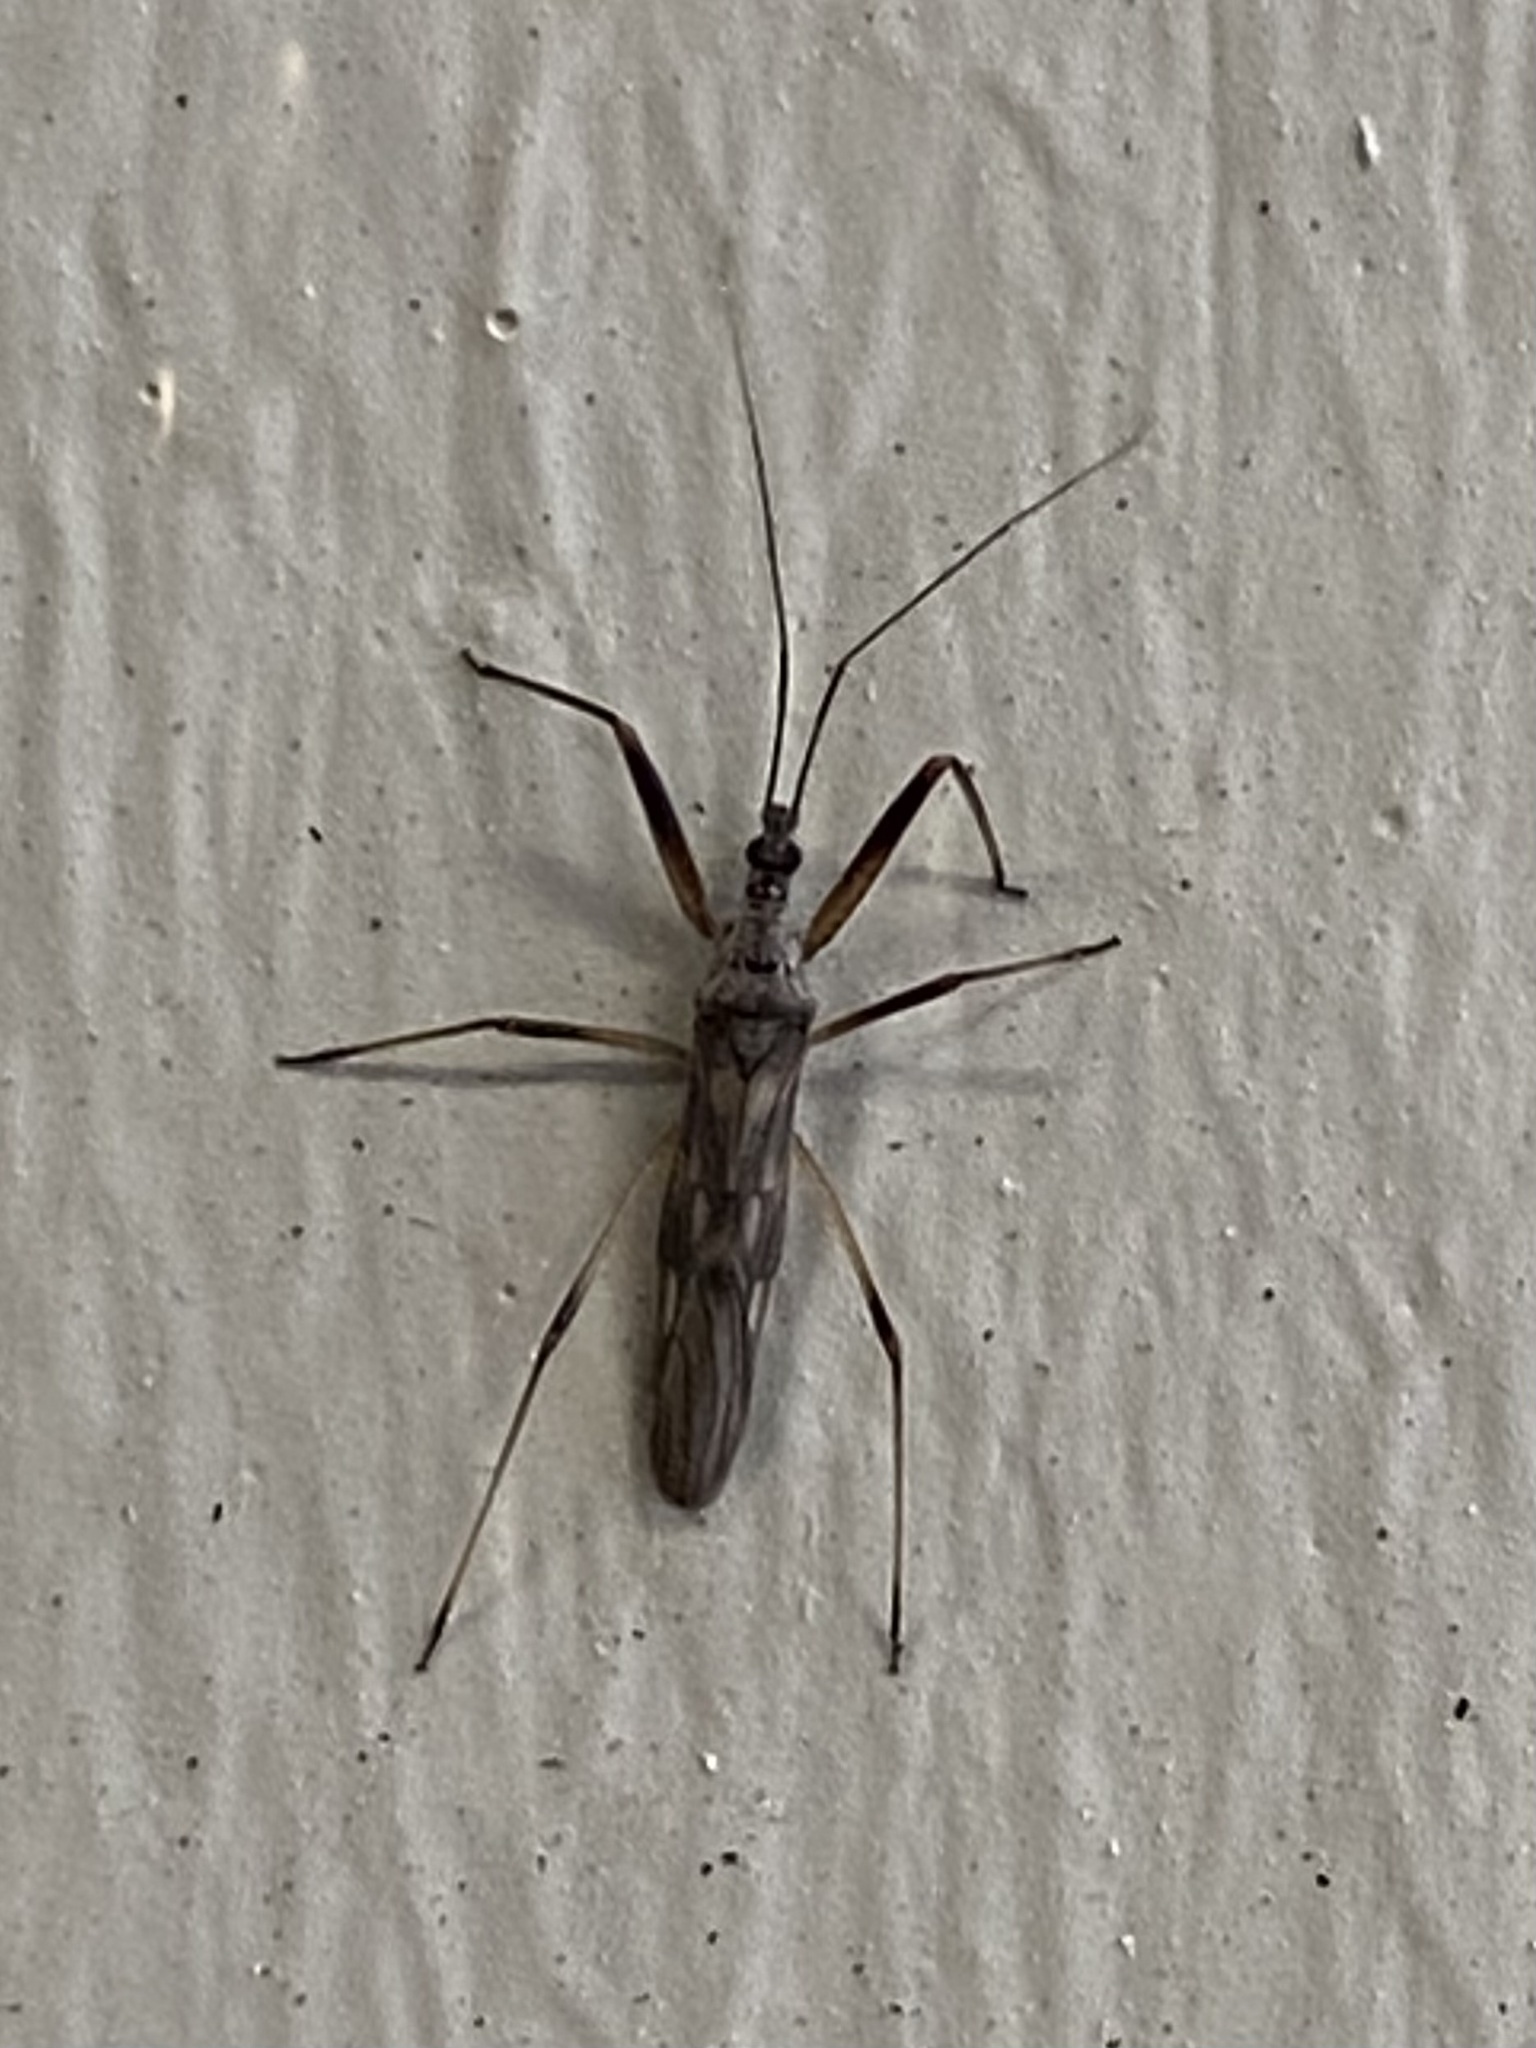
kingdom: Animalia
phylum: Arthropoda
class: Insecta
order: Hemiptera
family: Nabidae
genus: Metatropiphorus
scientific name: Metatropiphorus belfragii
